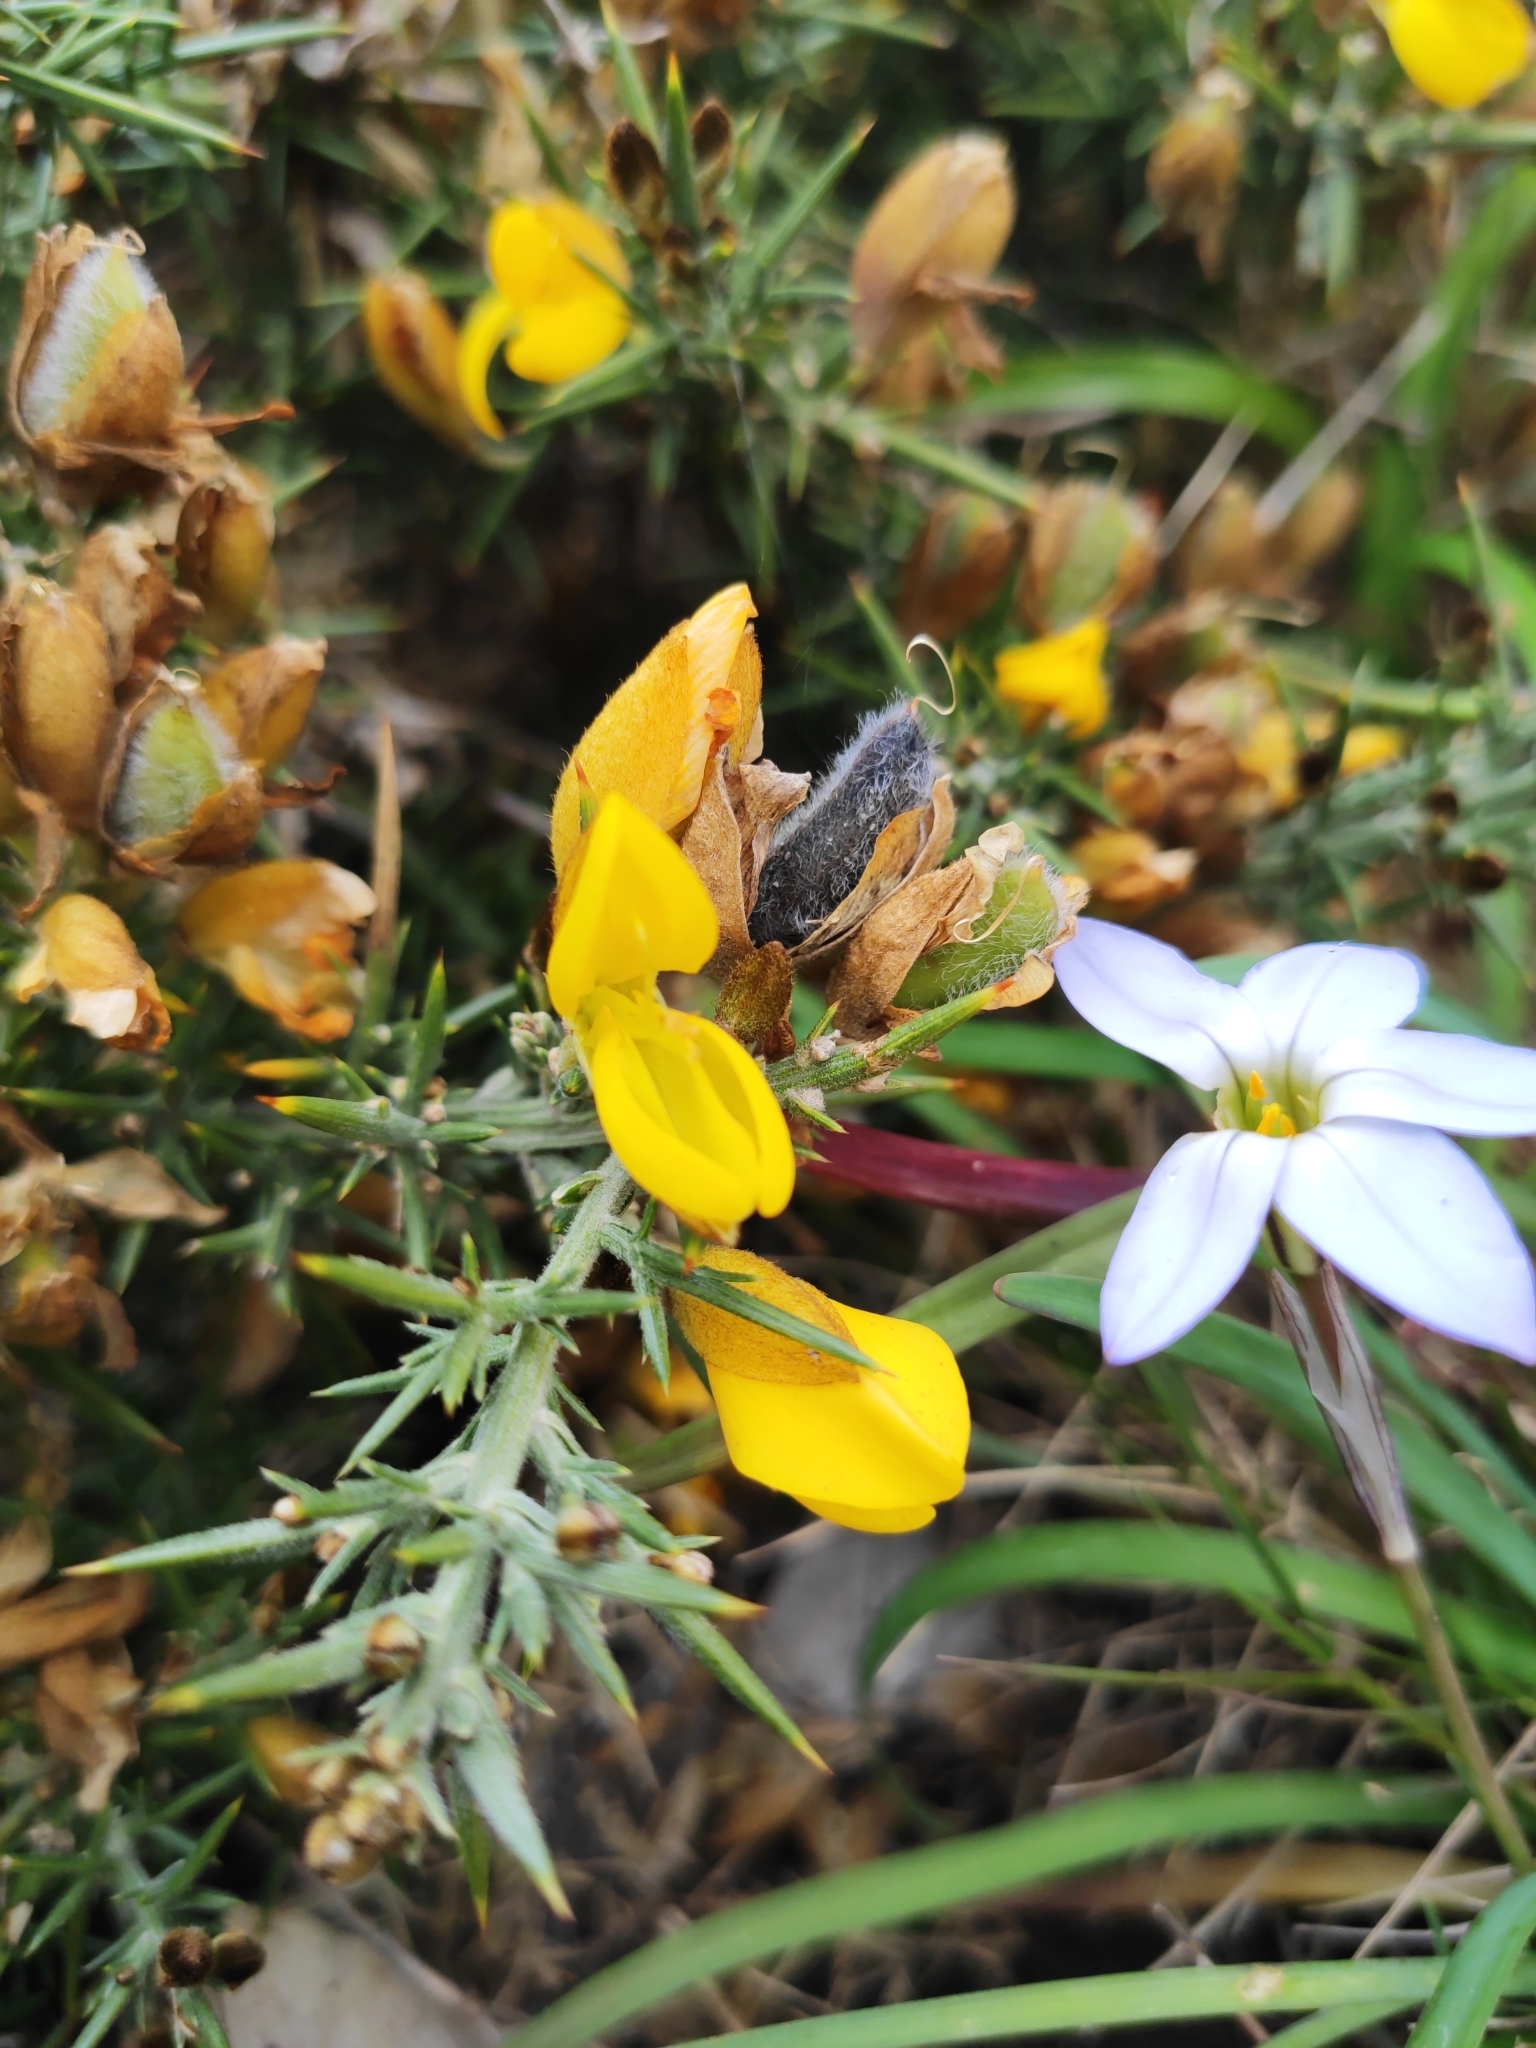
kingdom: Plantae
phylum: Tracheophyta
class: Magnoliopsida
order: Fabales
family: Fabaceae
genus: Ulex
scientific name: Ulex europaeus
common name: Common gorse
